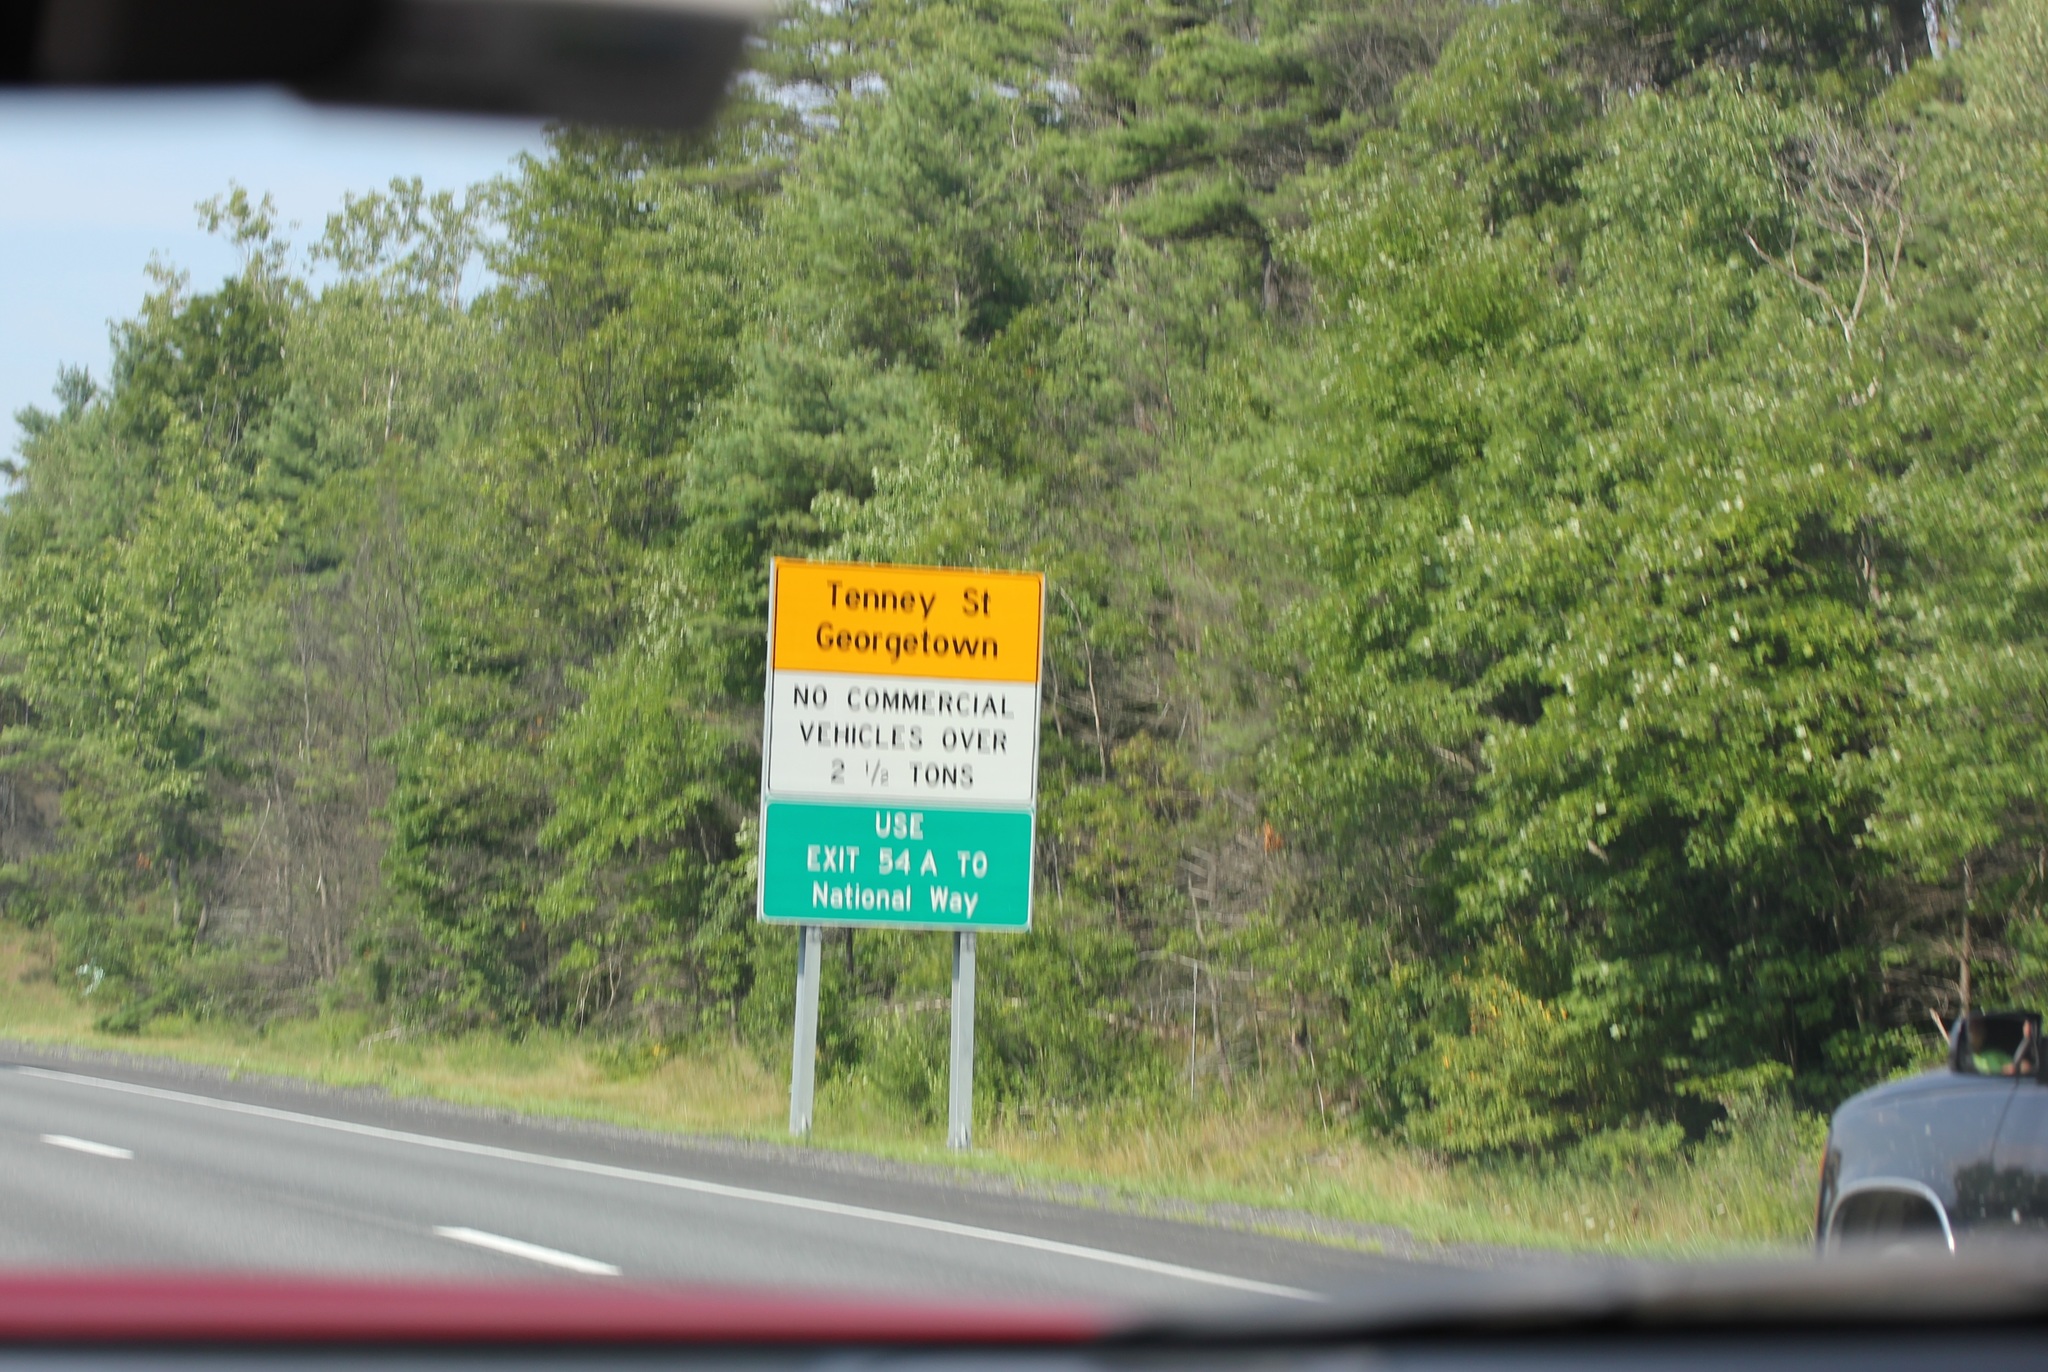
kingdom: Plantae
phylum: Tracheophyta
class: Pinopsida
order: Pinales
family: Pinaceae
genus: Pinus
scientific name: Pinus strobus
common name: Weymouth pine
